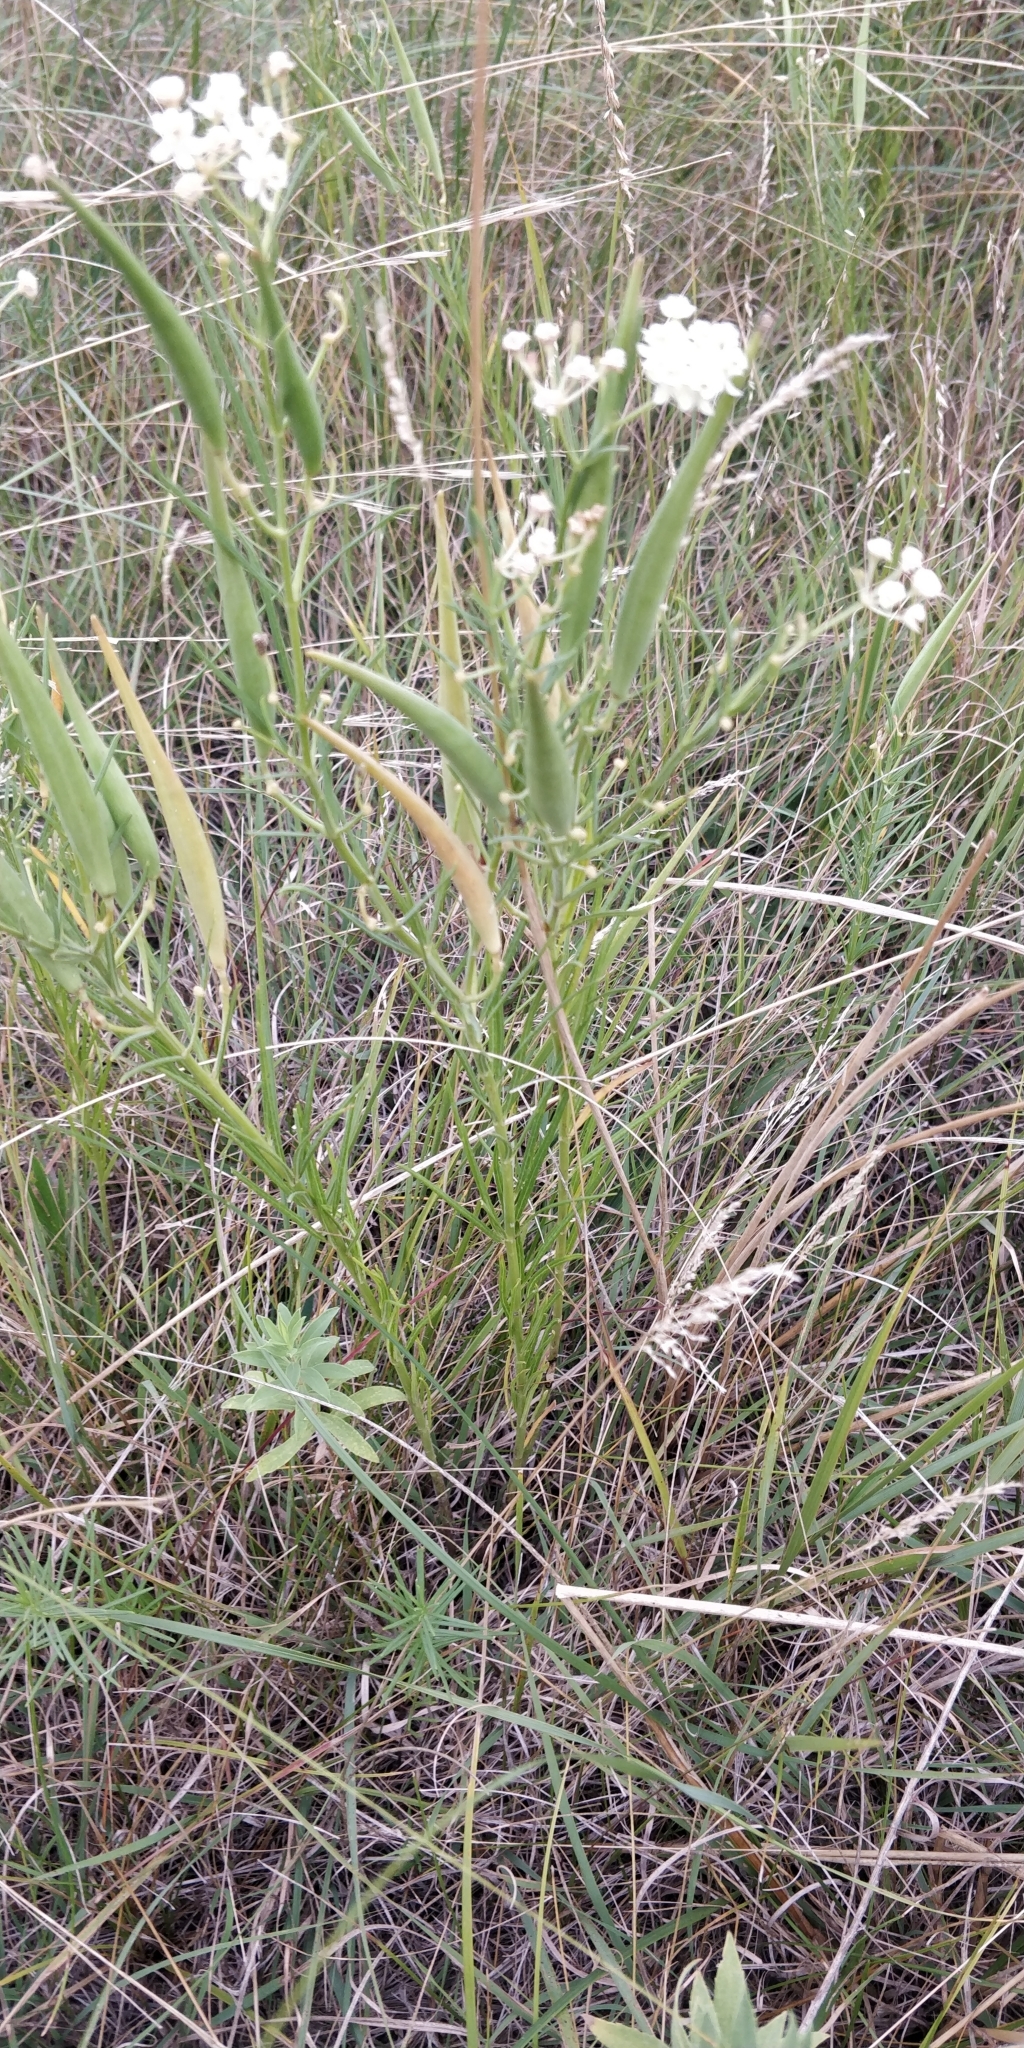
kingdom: Plantae
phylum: Tracheophyta
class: Magnoliopsida
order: Gentianales
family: Apocynaceae
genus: Asclepias
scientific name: Asclepias verticillata
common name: Eastern whorled milkweed
